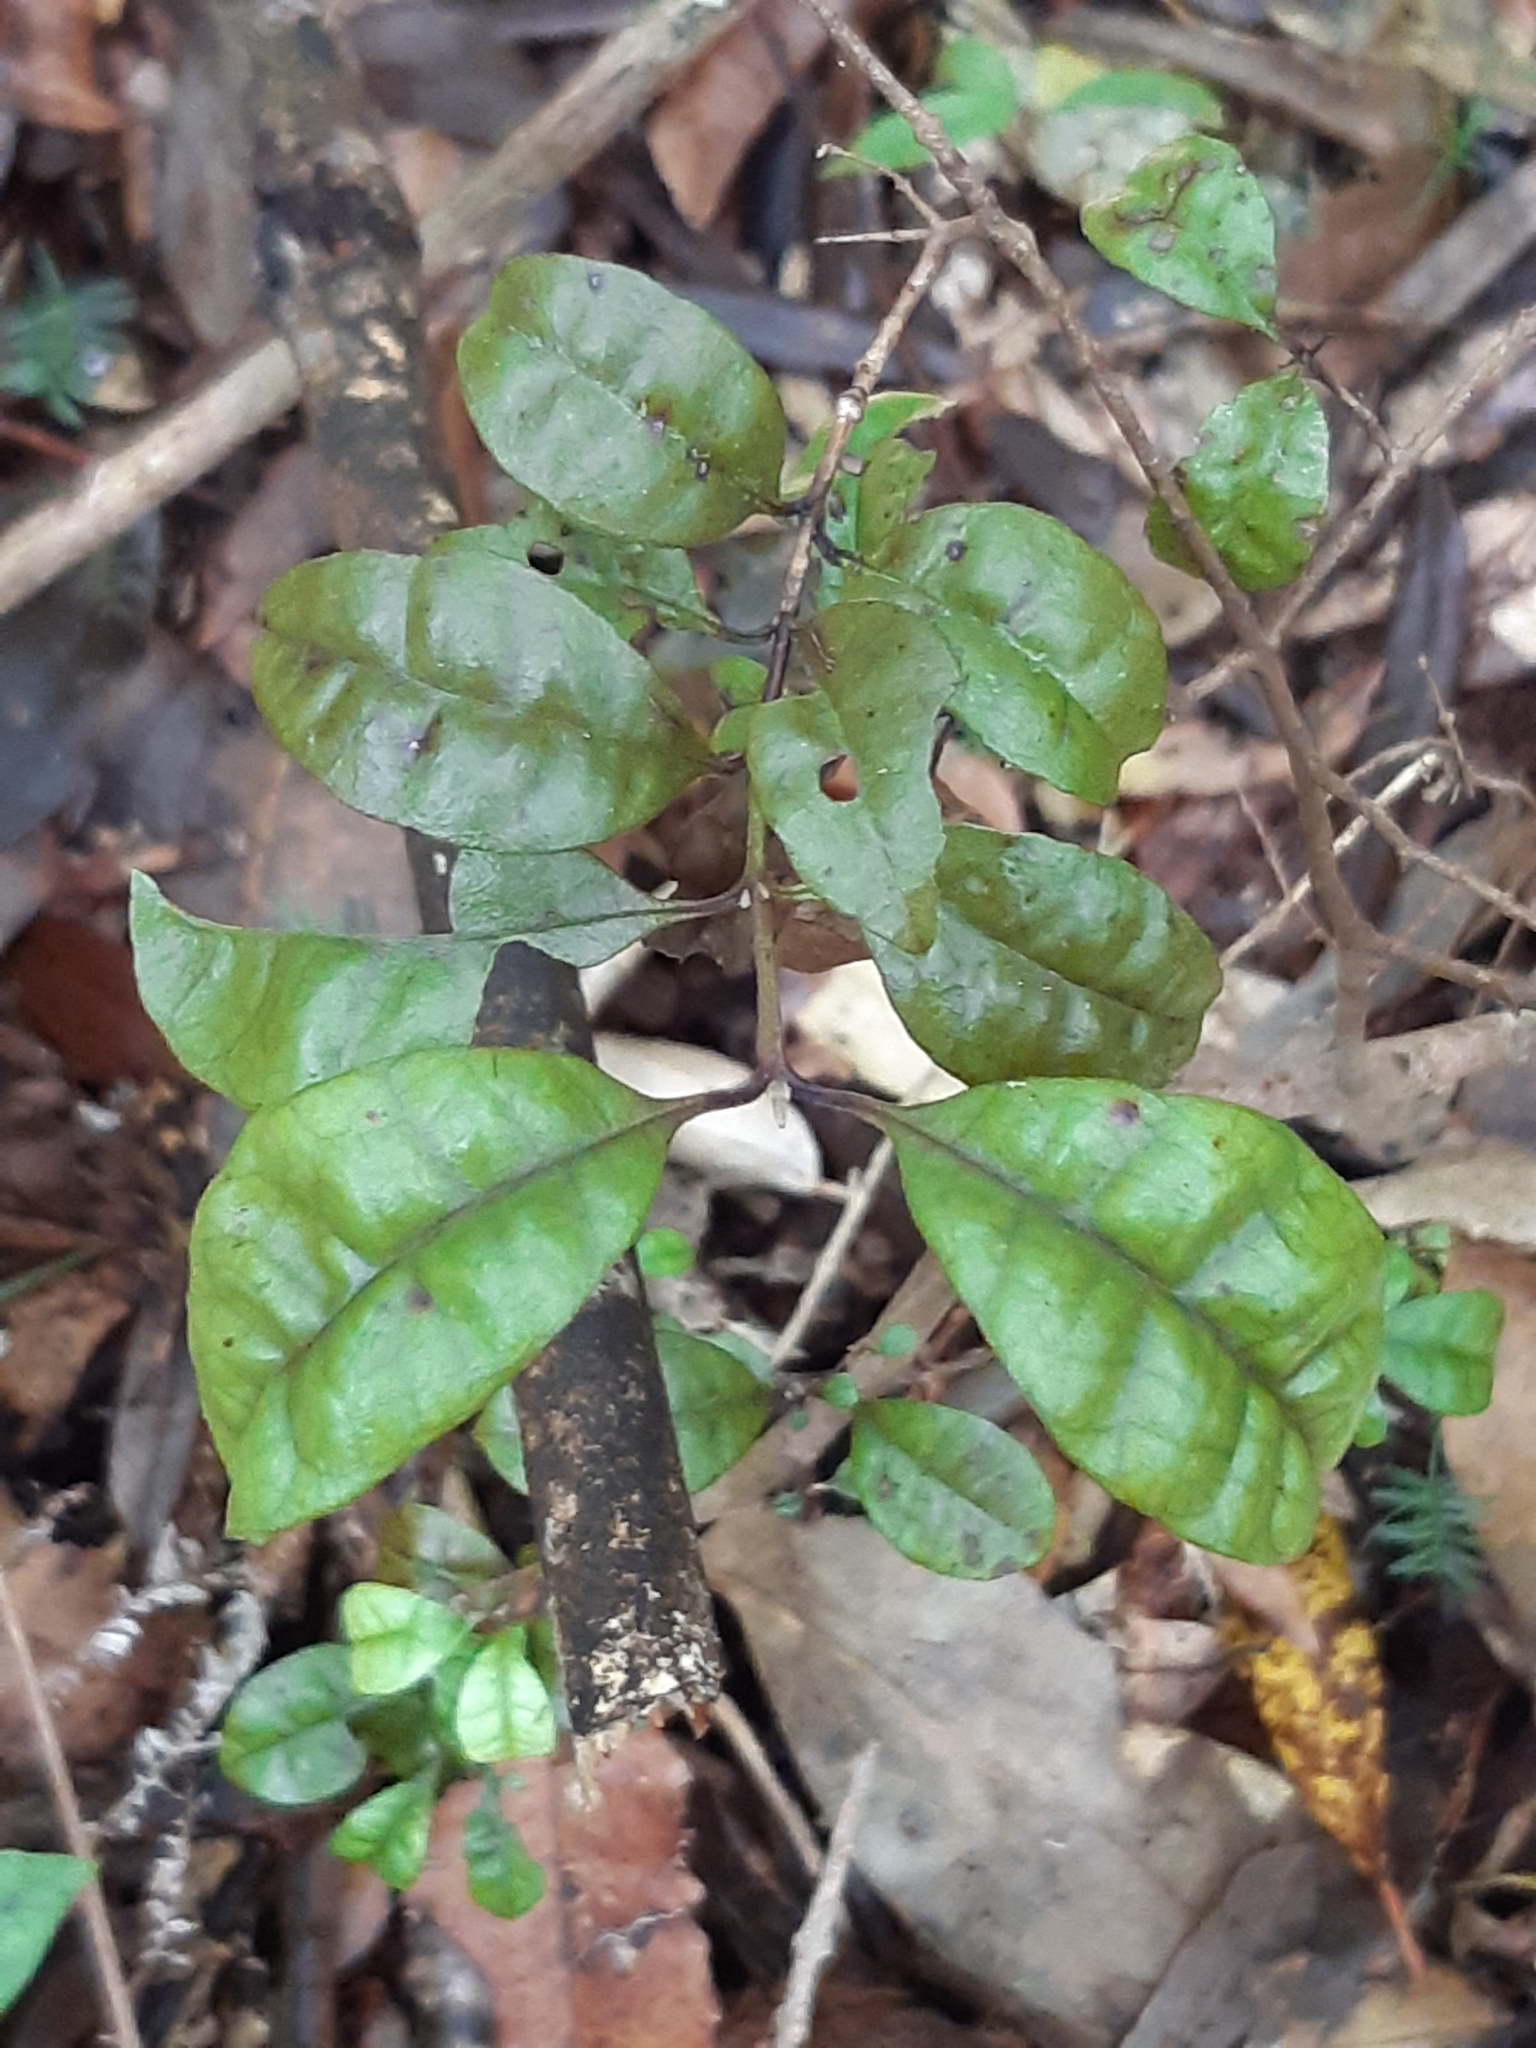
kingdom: Plantae
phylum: Tracheophyta
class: Magnoliopsida
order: Myrtales
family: Myrtaceae
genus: Lophomyrtus
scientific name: Lophomyrtus bullata
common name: Rama rama
